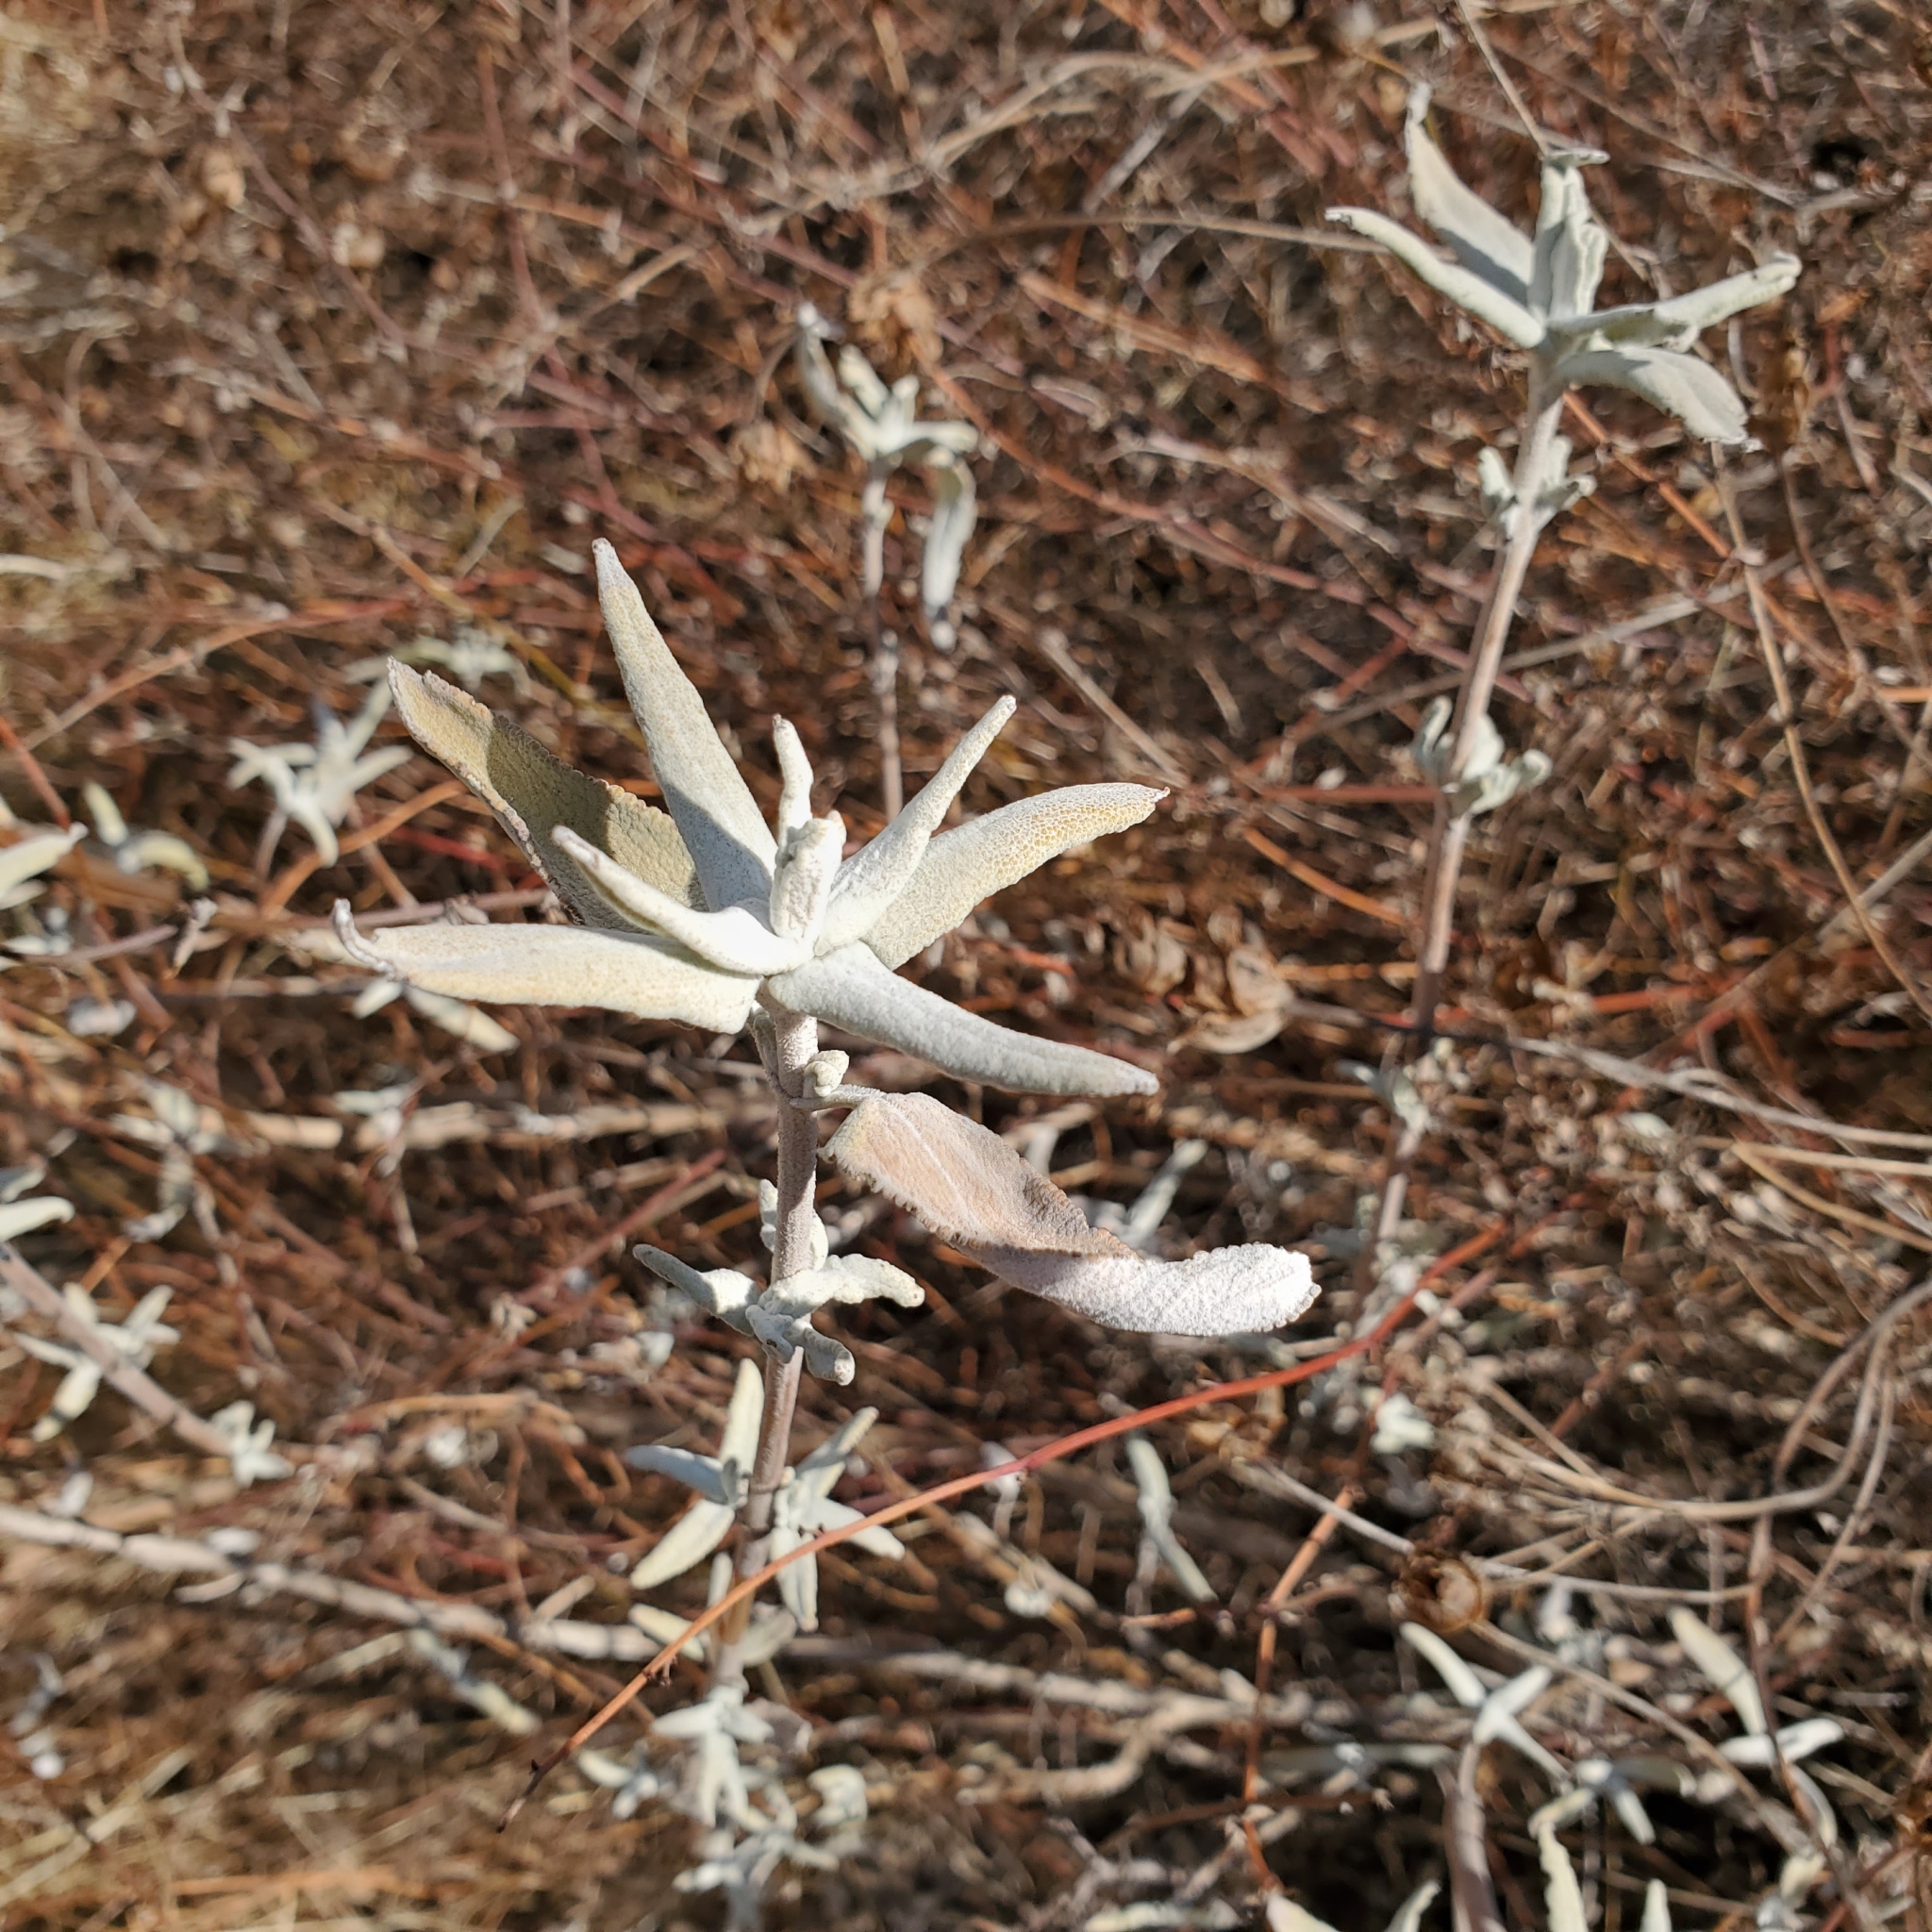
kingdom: Plantae
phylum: Tracheophyta
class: Magnoliopsida
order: Lamiales
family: Lamiaceae
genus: Salvia
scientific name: Salvia leucophylla
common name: Purple sage
